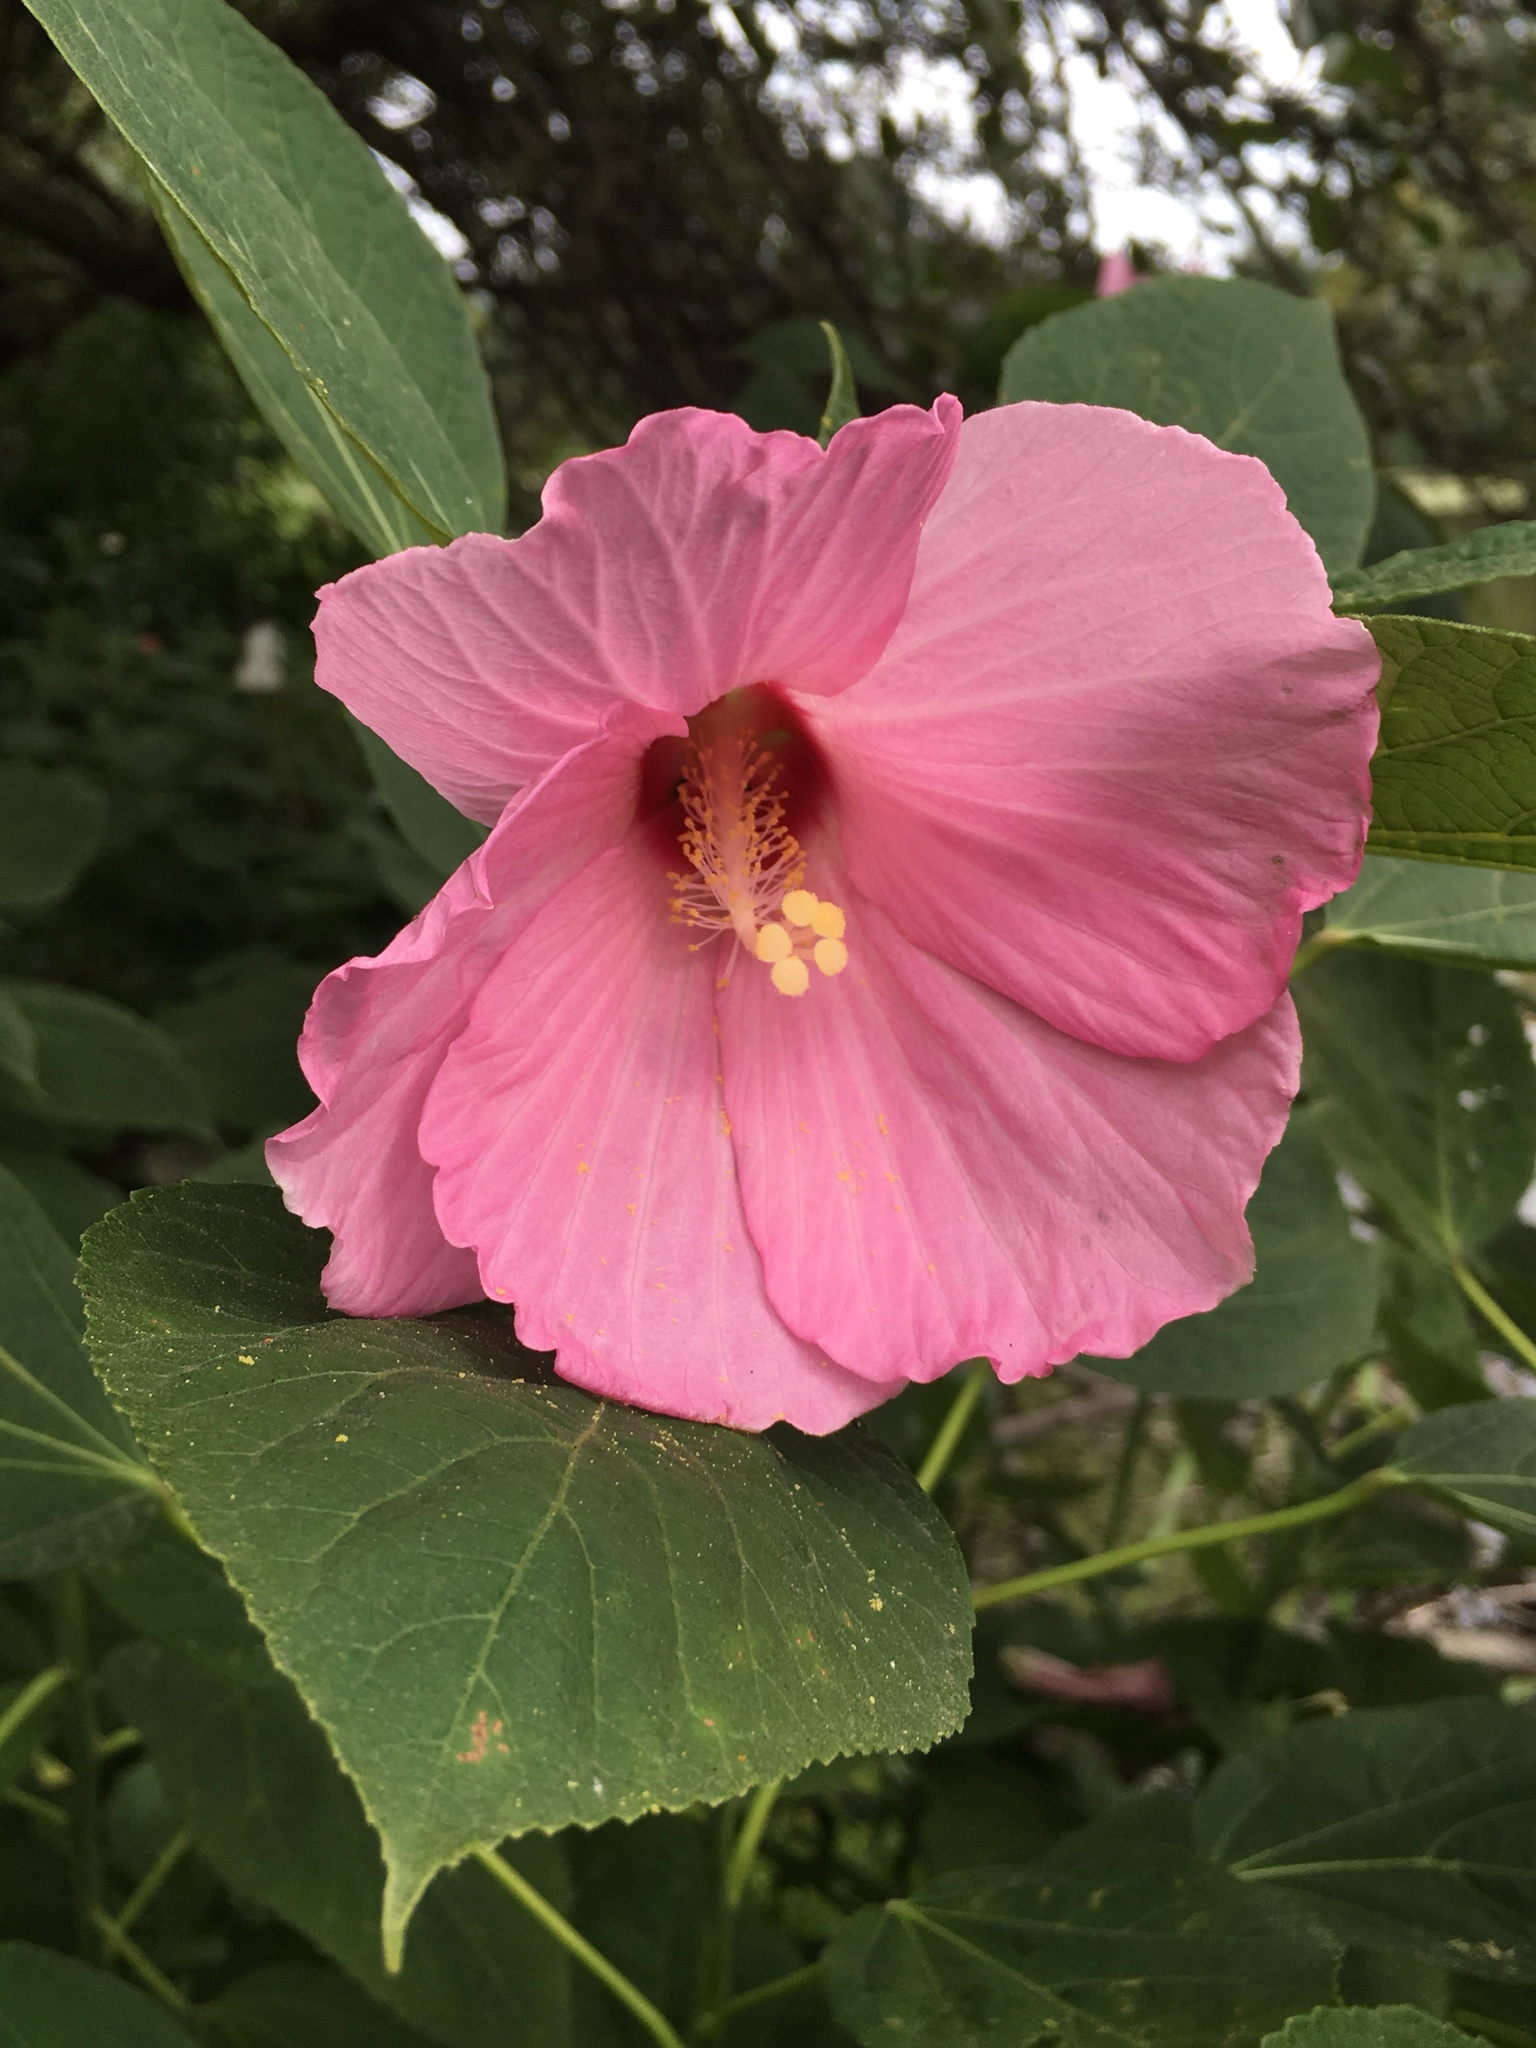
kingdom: Plantae
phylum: Tracheophyta
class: Magnoliopsida
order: Malvales
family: Malvaceae
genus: Hibiscus
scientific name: Hibiscus moscheutos
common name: Common rose-mallow
